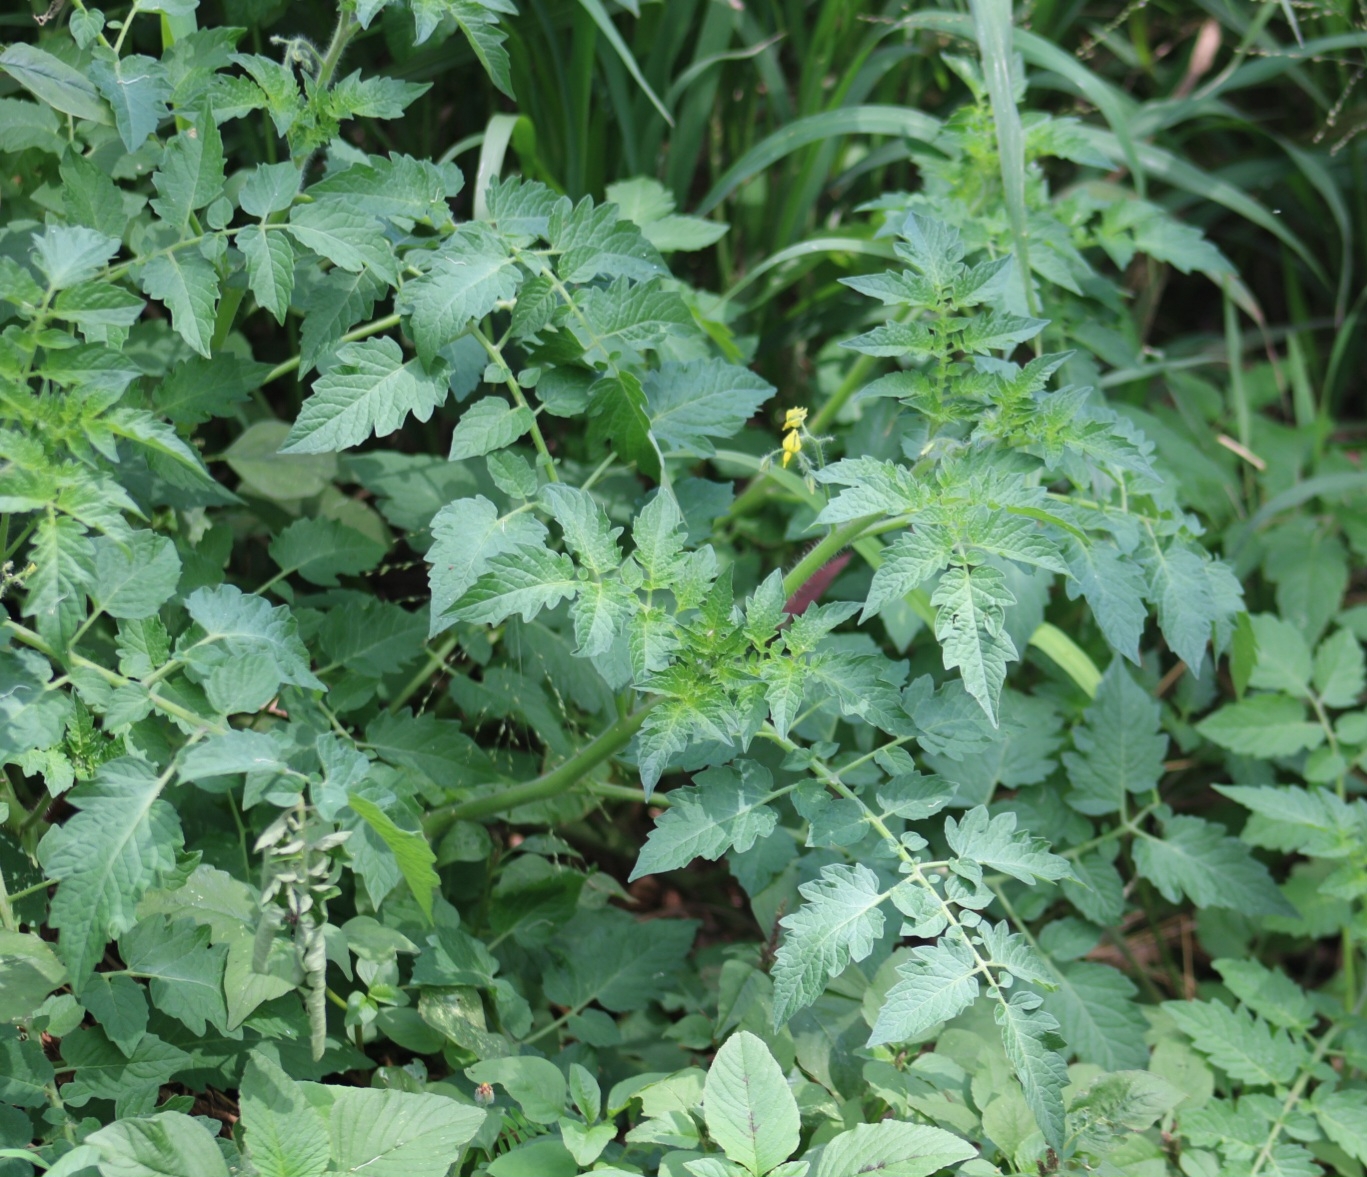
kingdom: Plantae
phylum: Tracheophyta
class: Magnoliopsida
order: Solanales
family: Solanaceae
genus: Solanum
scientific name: Solanum lycopersicum
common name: Garden tomato
